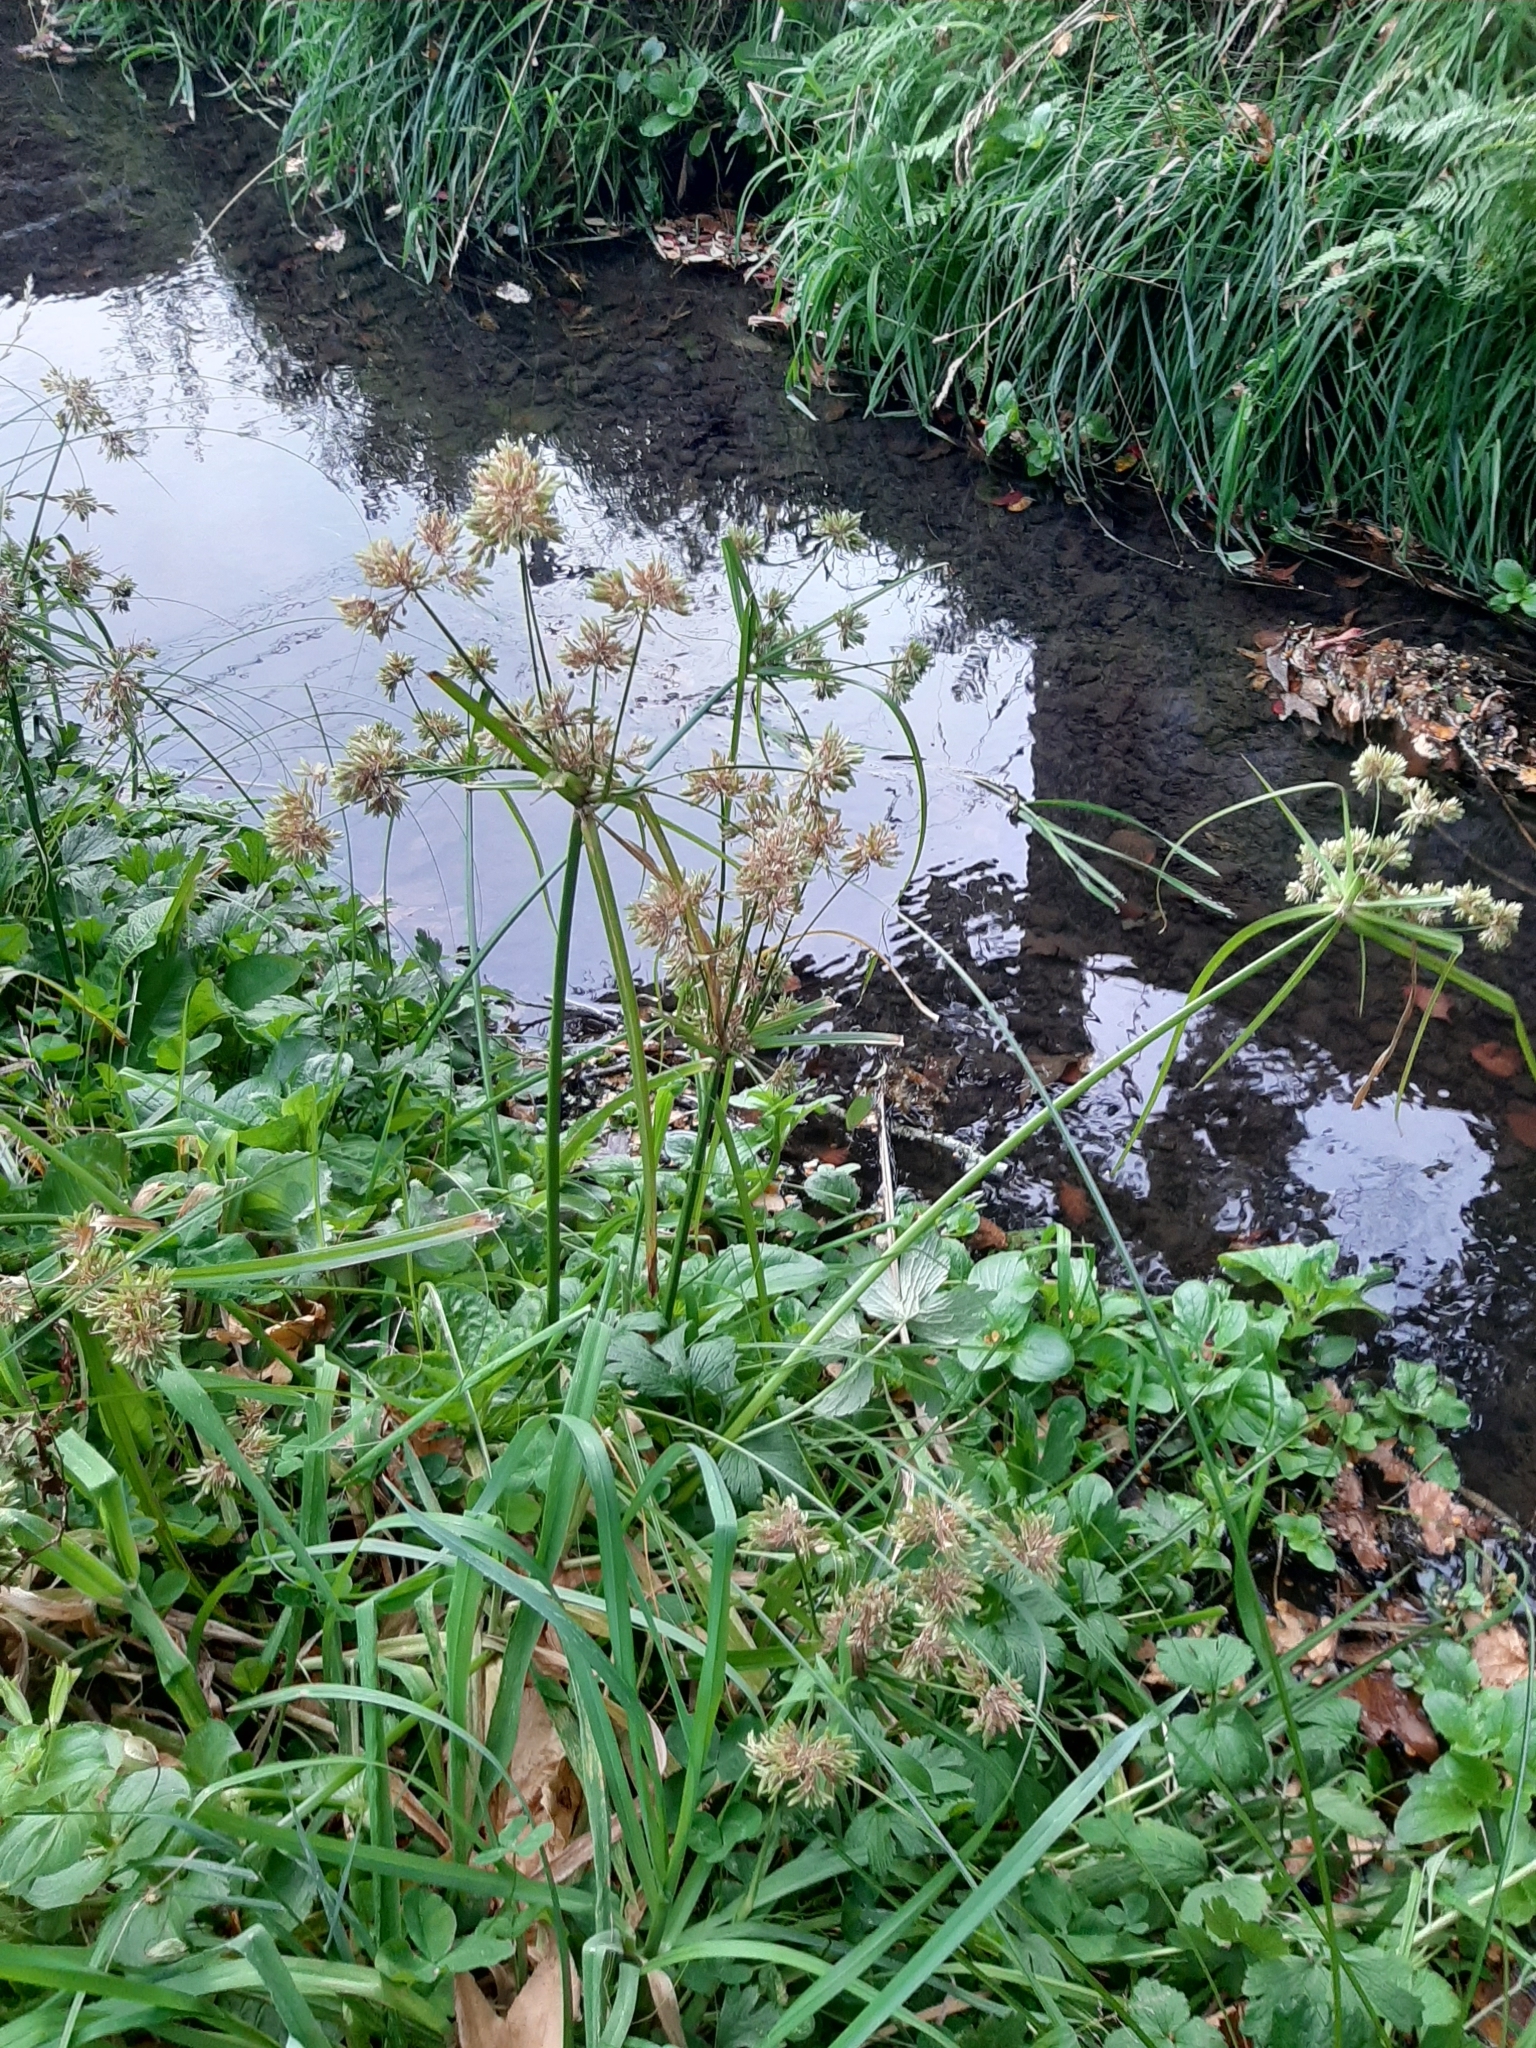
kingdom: Plantae
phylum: Tracheophyta
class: Liliopsida
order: Poales
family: Cyperaceae
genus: Cyperus
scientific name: Cyperus eragrostis
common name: Tall flatsedge
